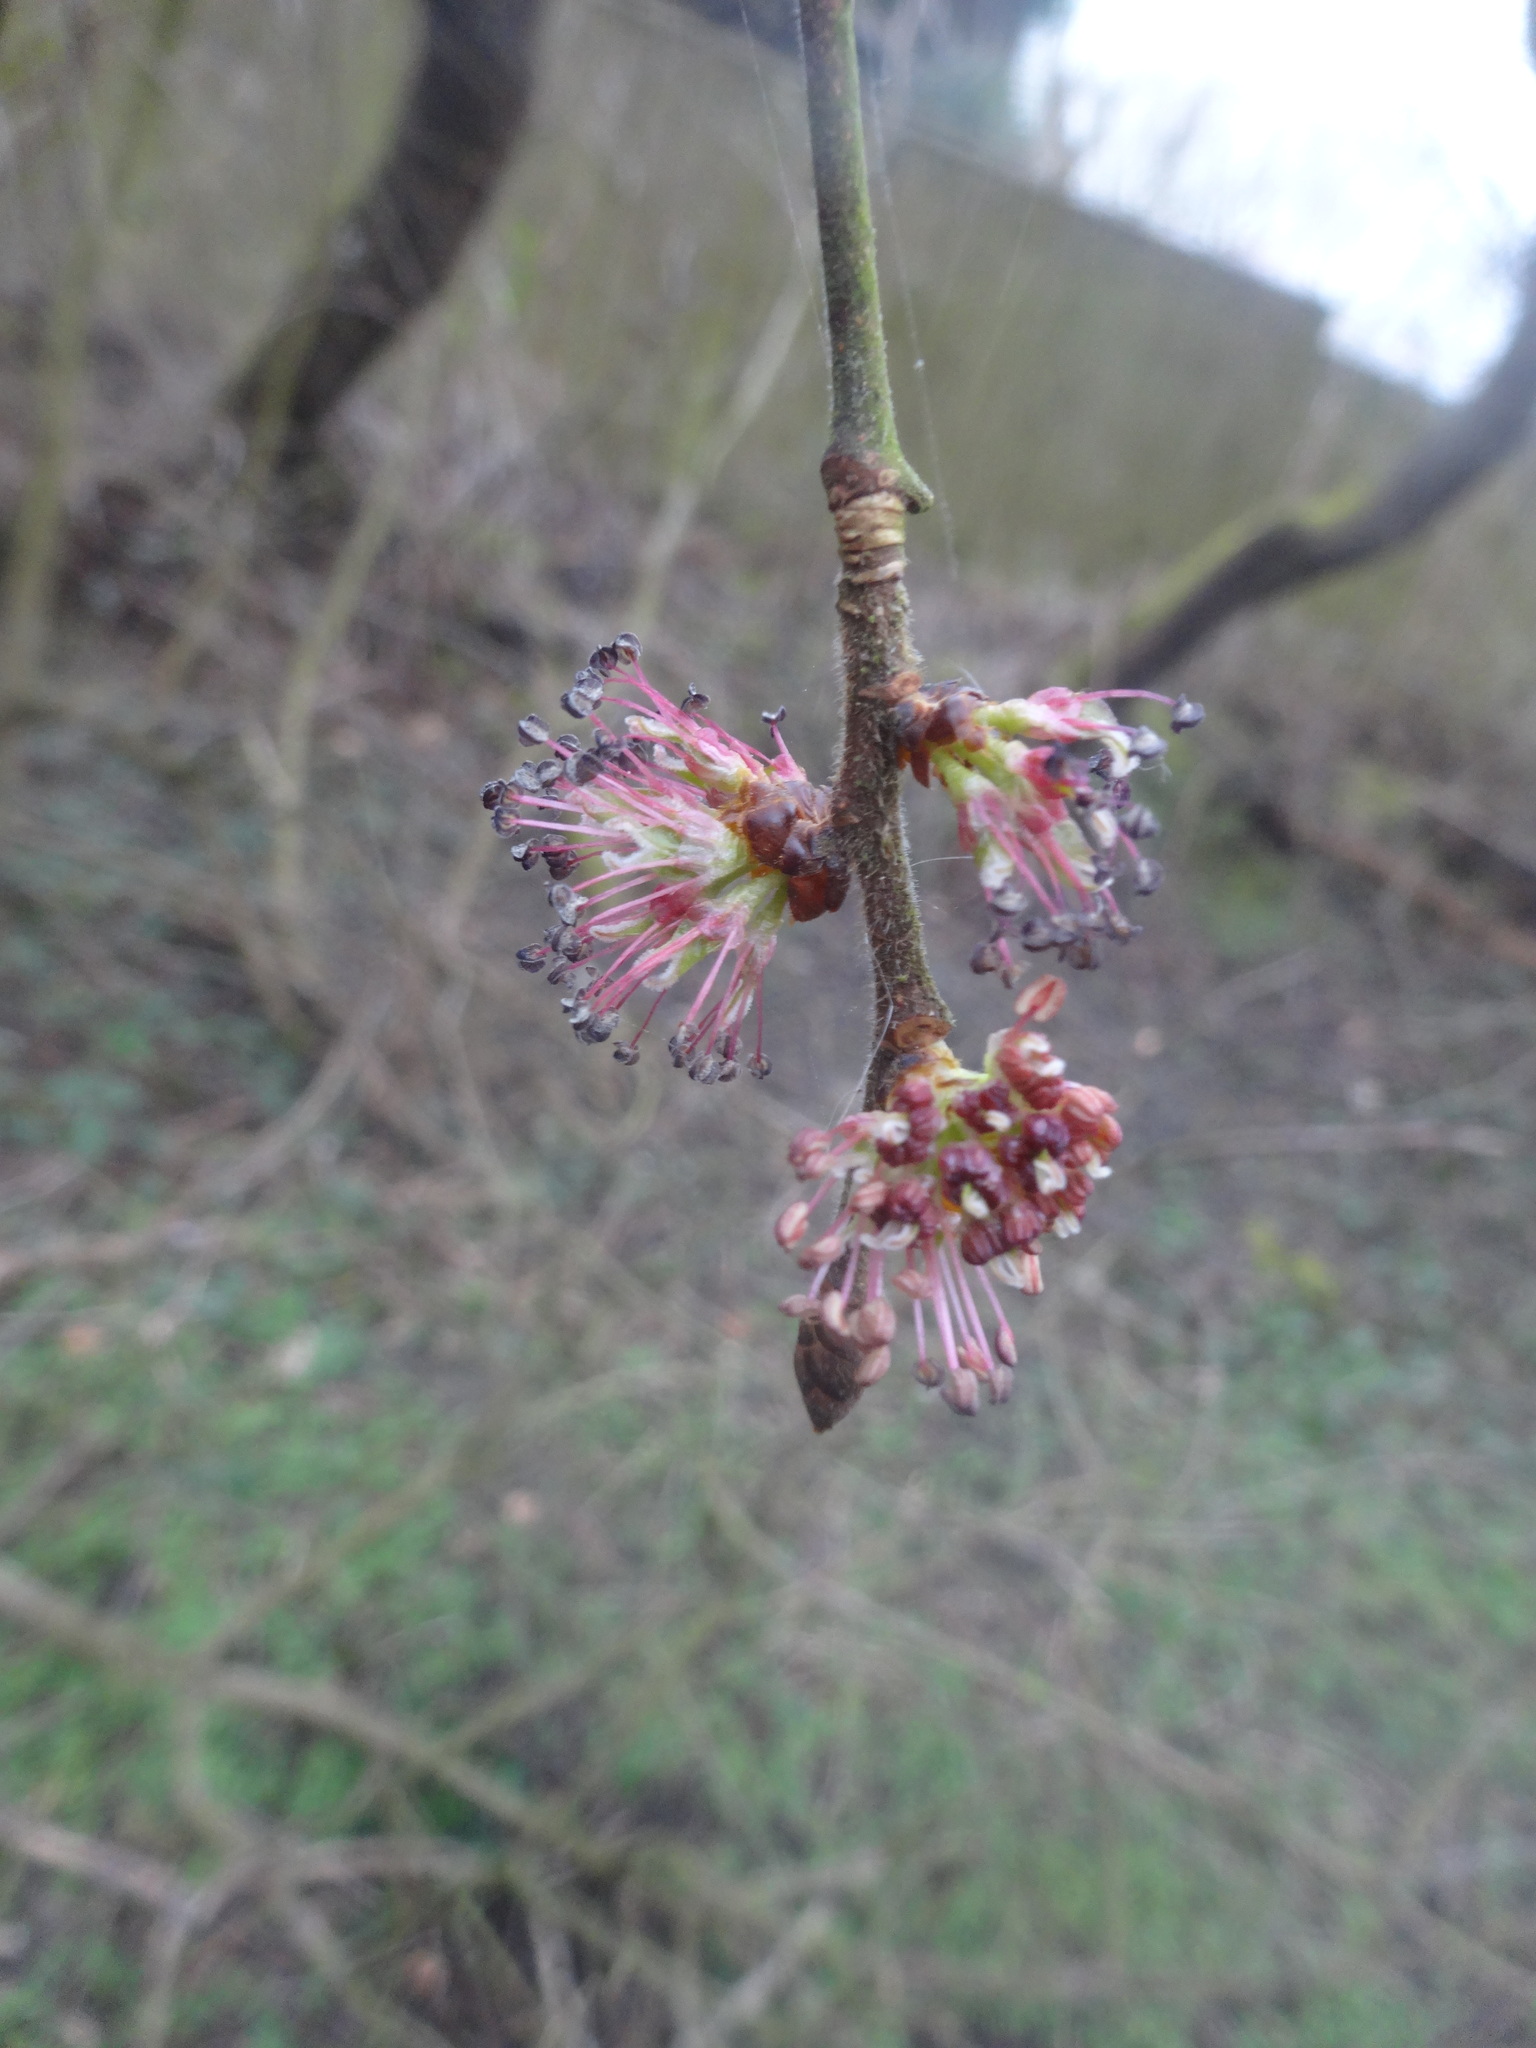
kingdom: Plantae
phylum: Tracheophyta
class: Magnoliopsida
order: Rosales
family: Ulmaceae
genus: Ulmus
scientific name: Ulmus glabra
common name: Wych elm
